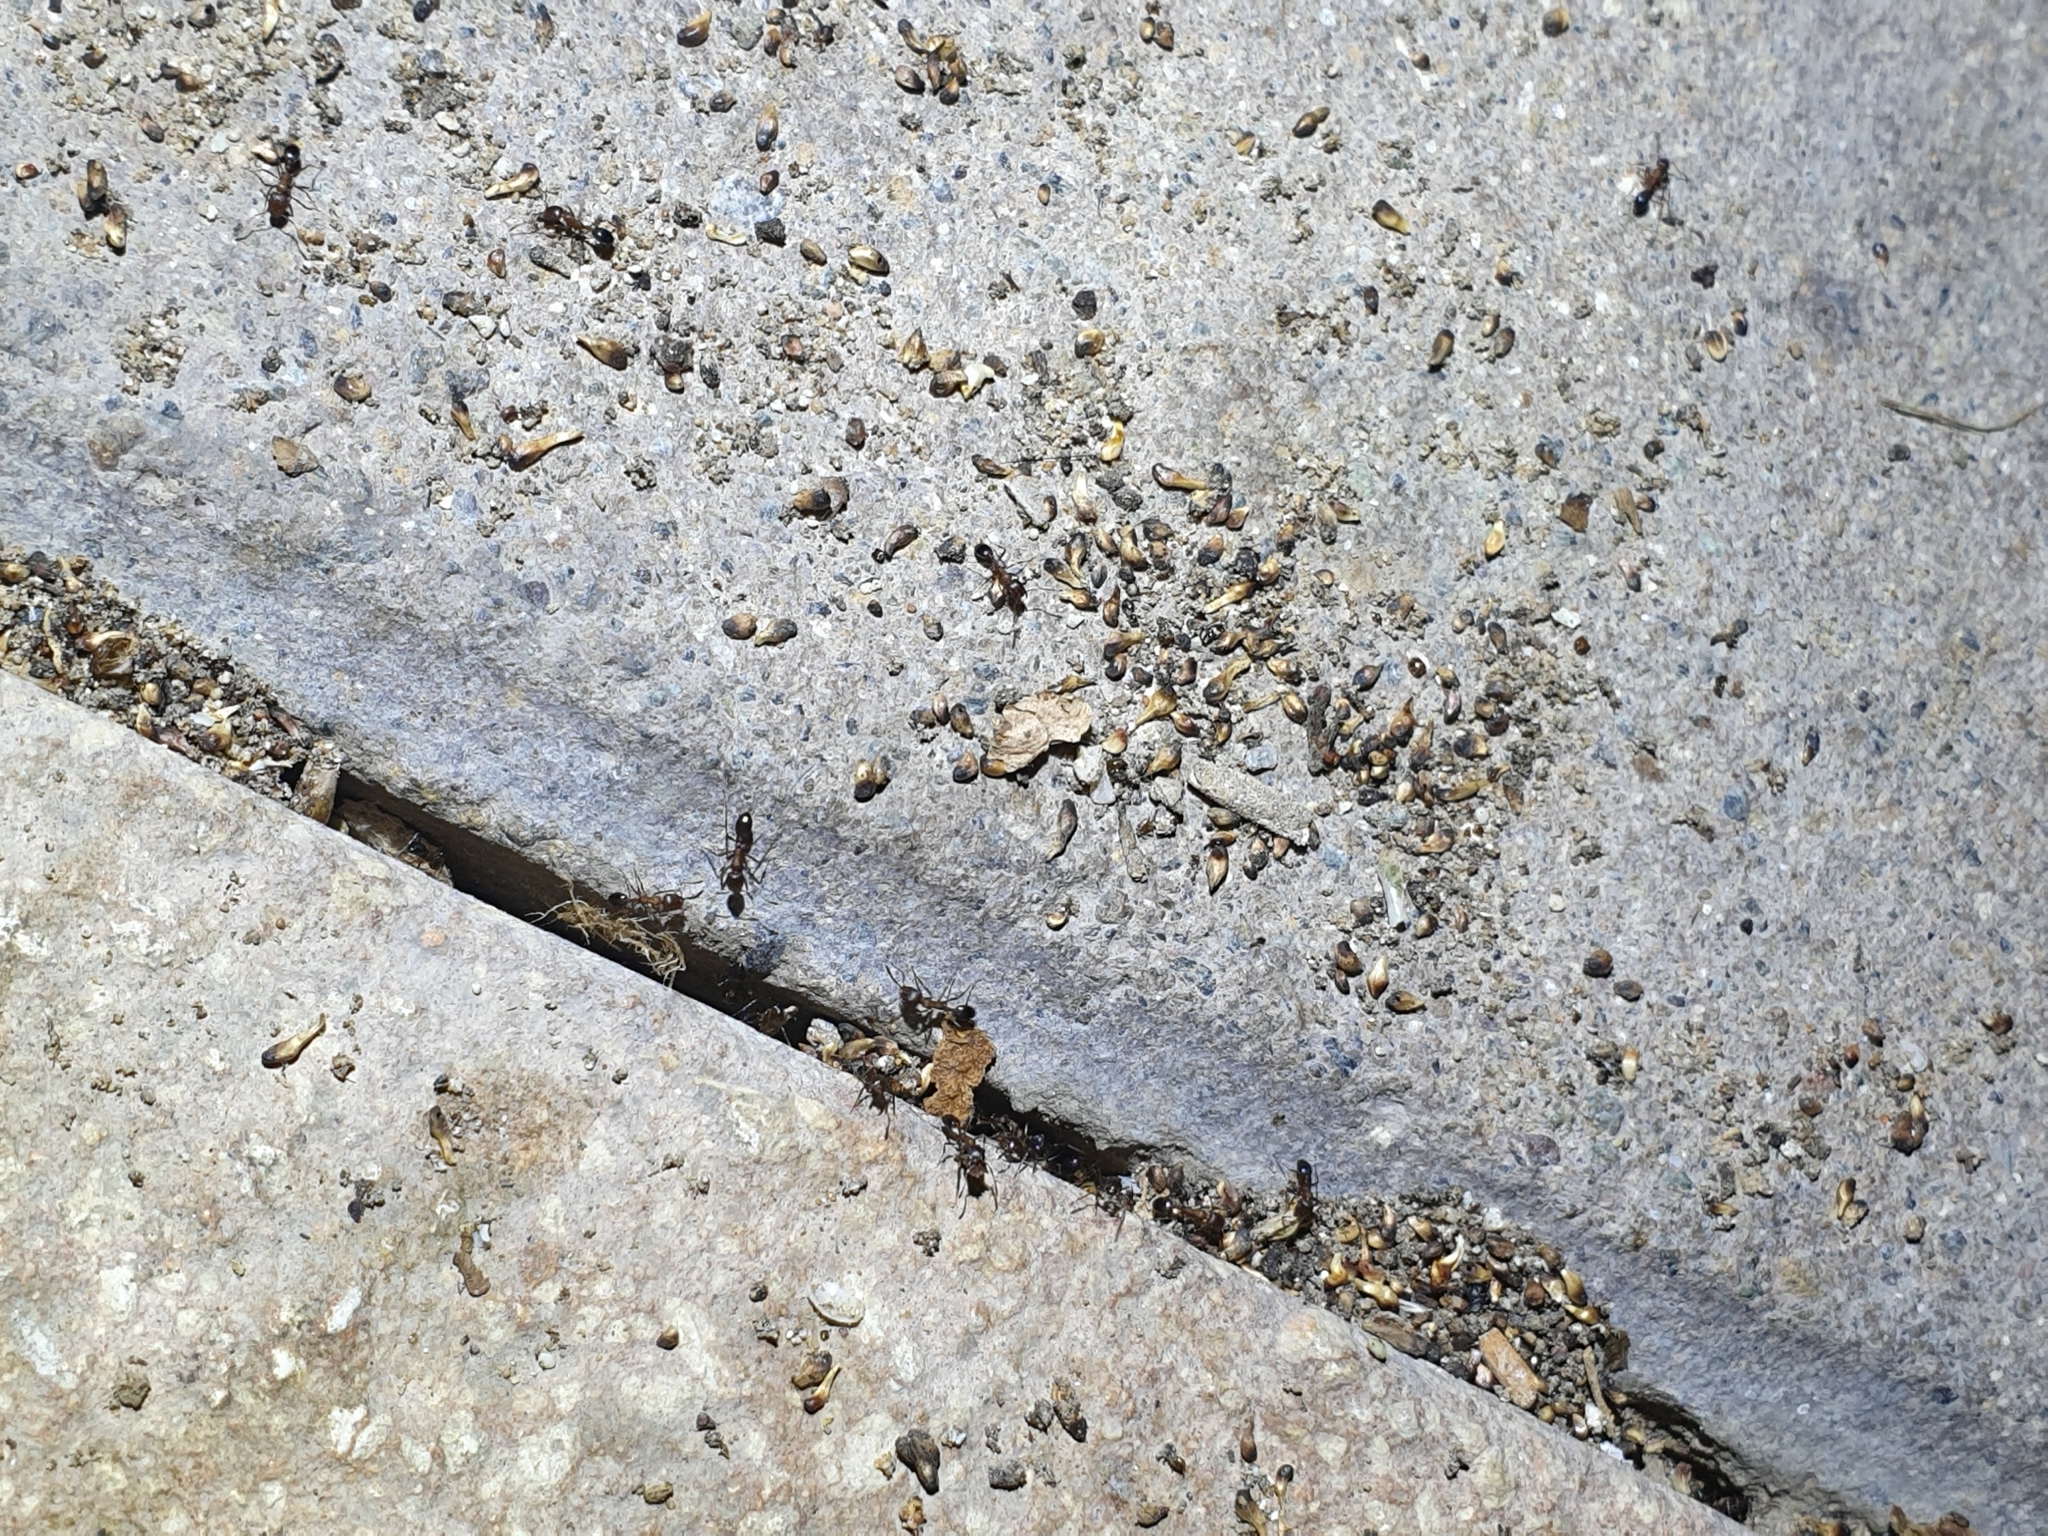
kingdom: Animalia
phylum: Arthropoda
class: Insecta
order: Hymenoptera
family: Formicidae
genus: Monomorium
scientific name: Monomorium subopacum
